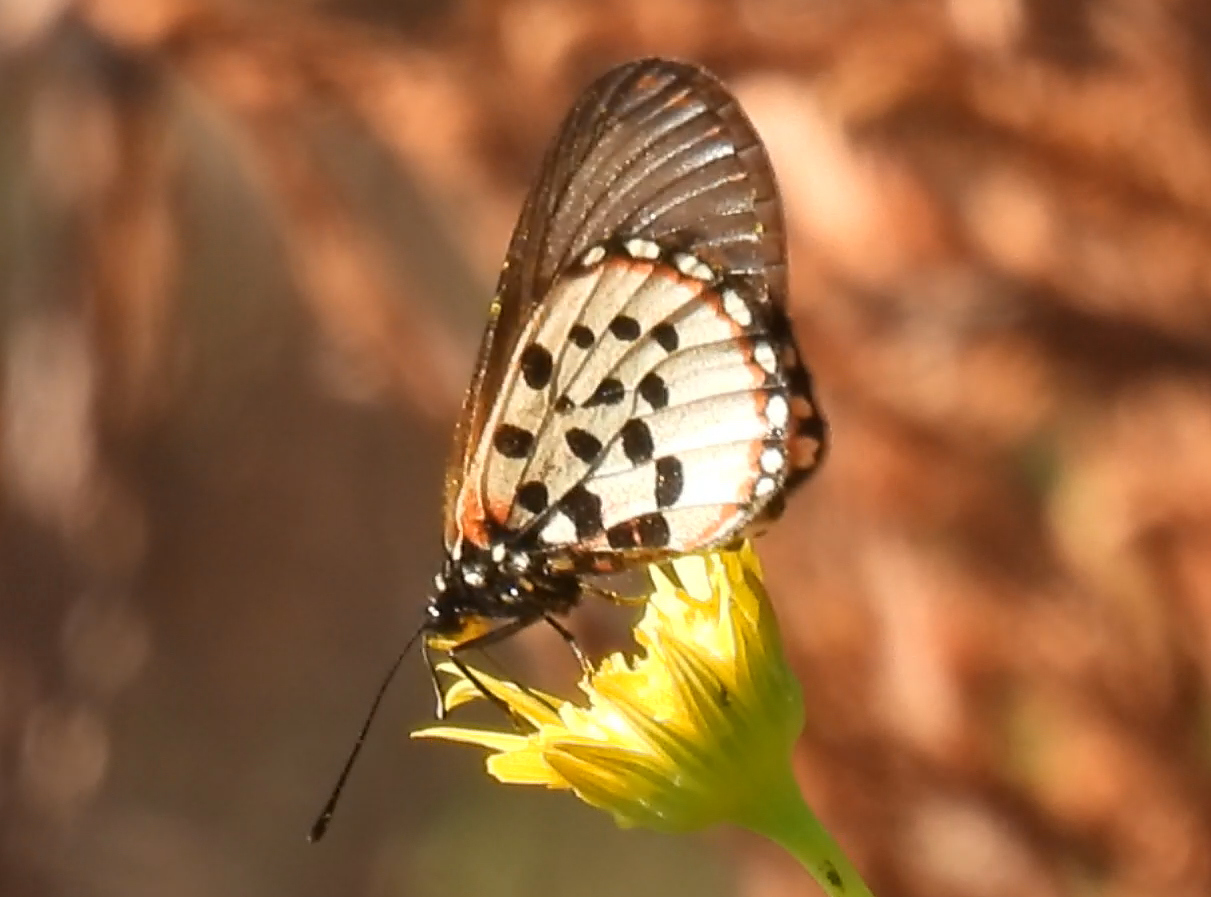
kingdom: Animalia
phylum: Arthropoda
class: Insecta
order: Lepidoptera
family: Nymphalidae
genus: Acraea
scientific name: Acraea horta
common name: Garden acraea
